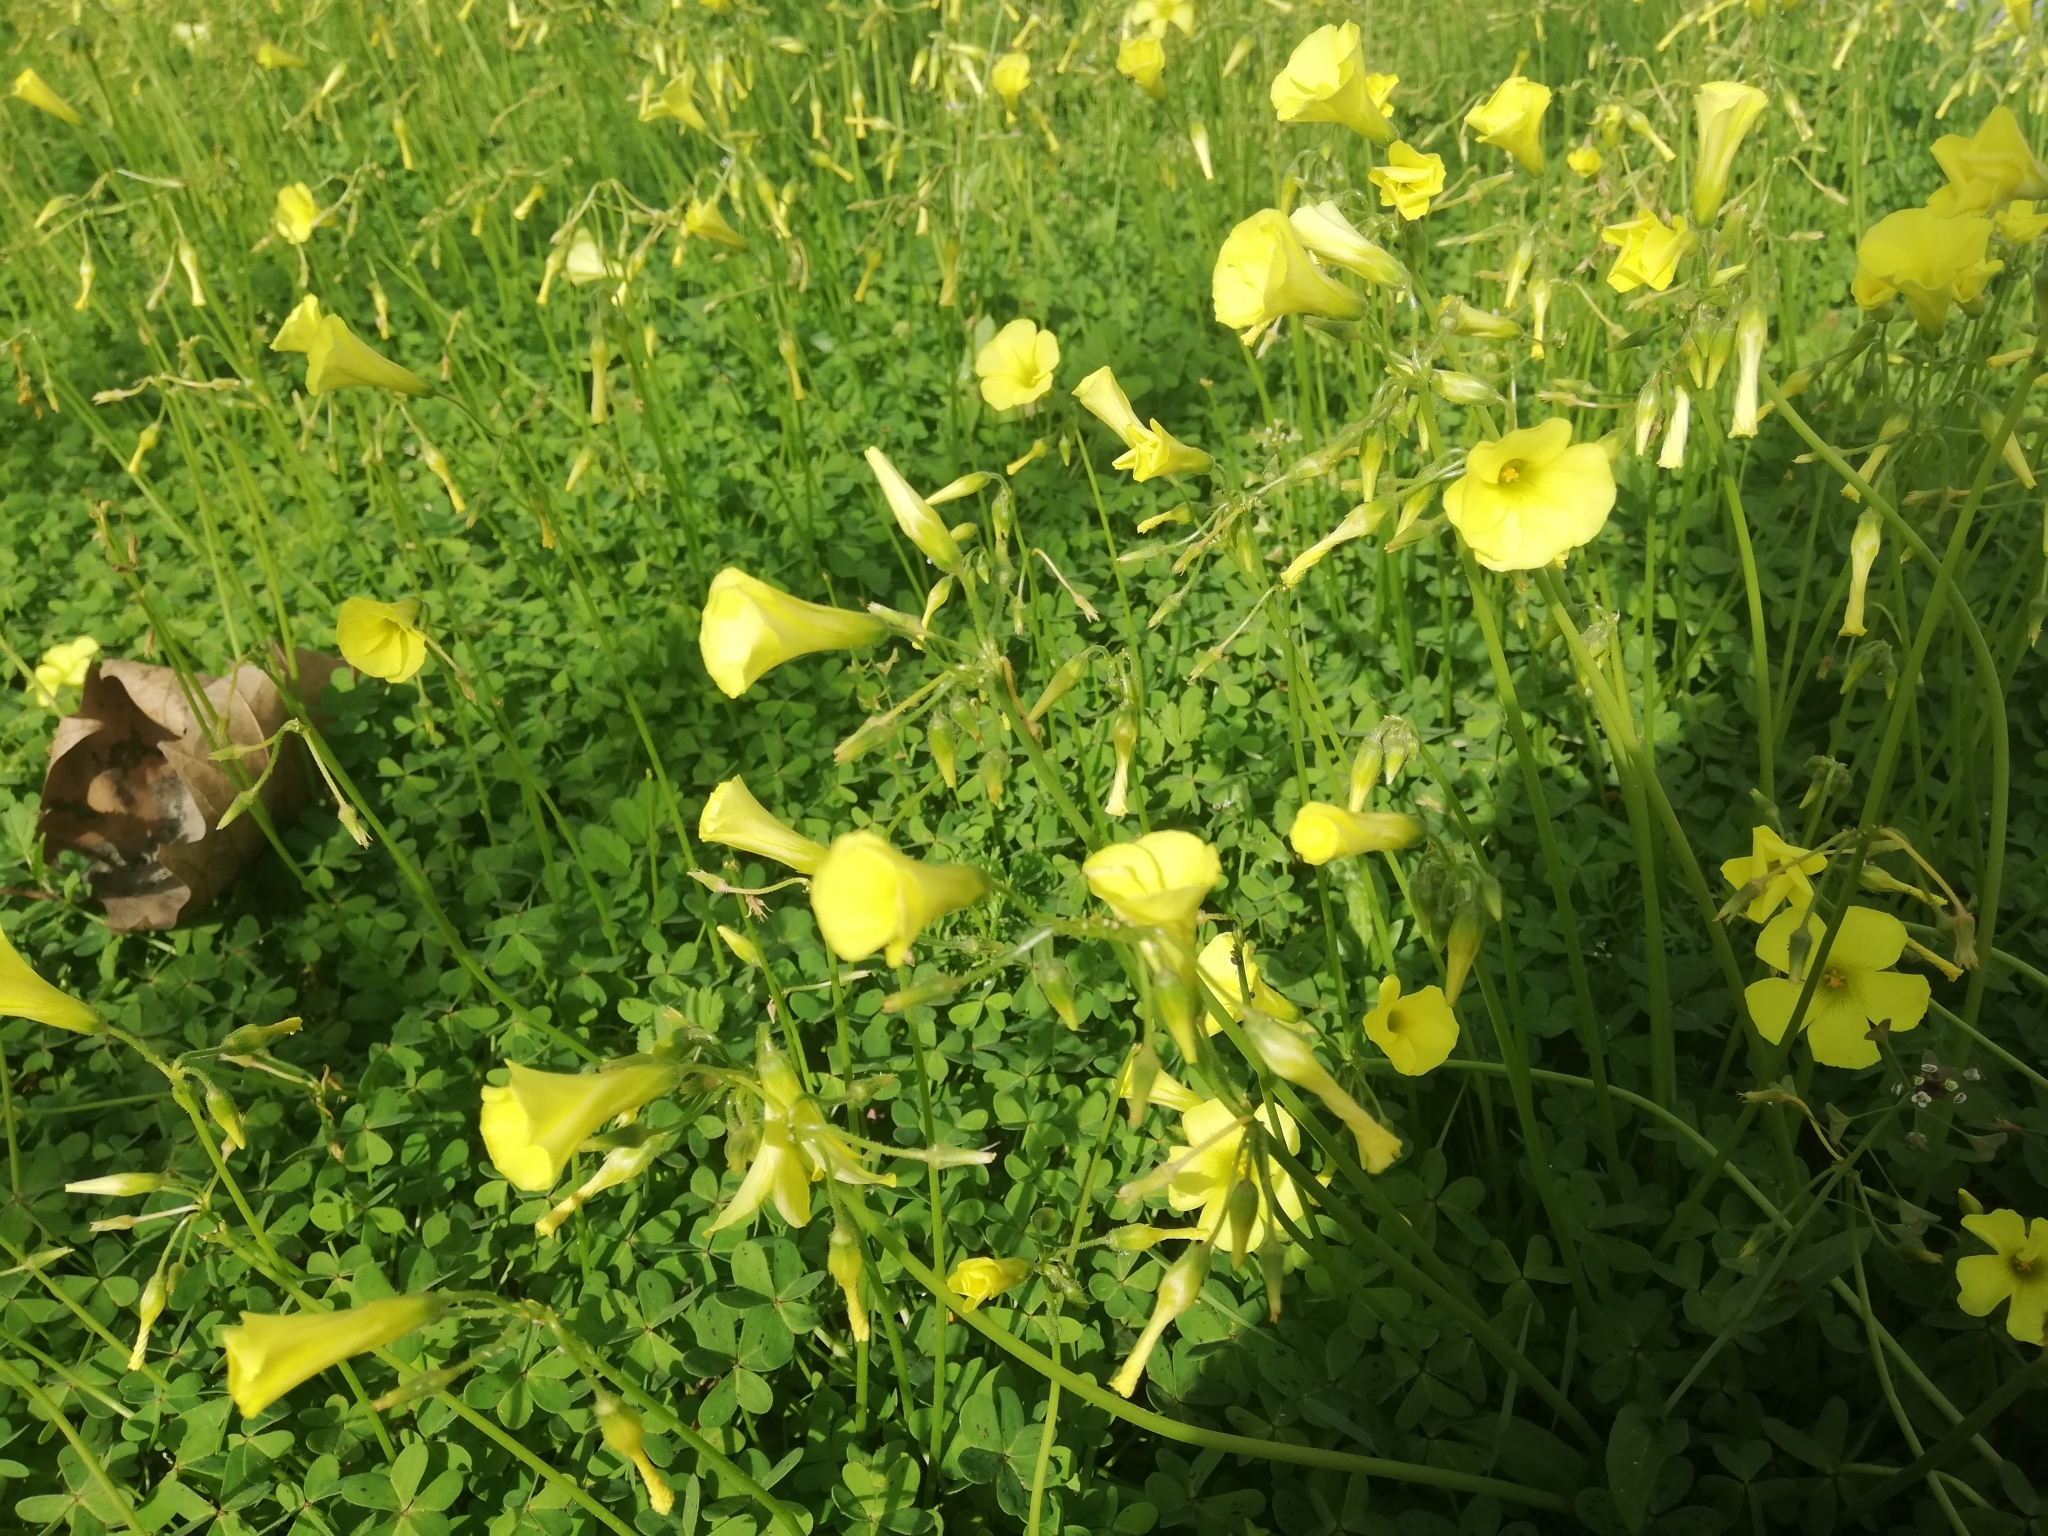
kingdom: Plantae
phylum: Tracheophyta
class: Magnoliopsida
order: Oxalidales
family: Oxalidaceae
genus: Oxalis
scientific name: Oxalis pes-caprae
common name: Bermuda-buttercup
